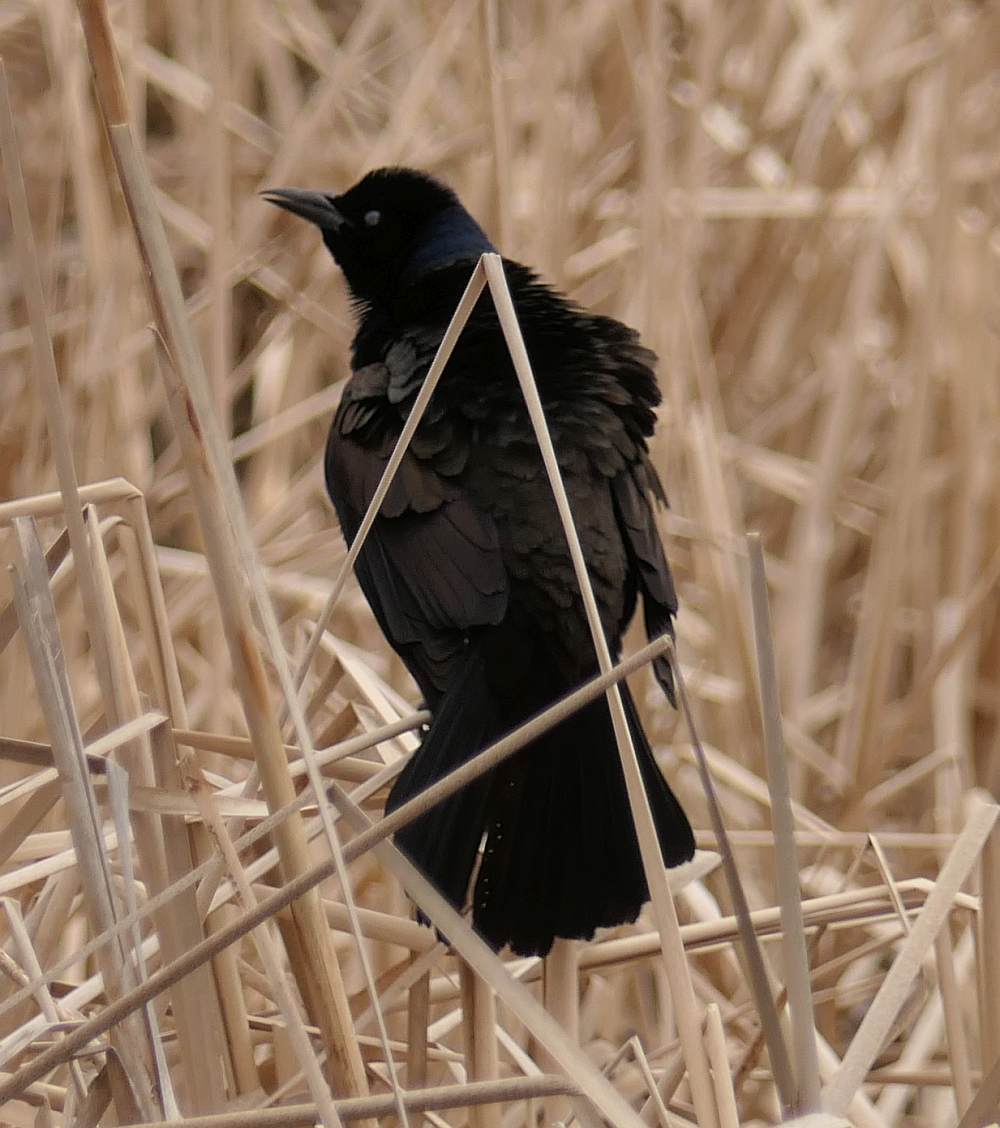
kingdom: Animalia
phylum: Chordata
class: Aves
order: Passeriformes
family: Icteridae
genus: Quiscalus
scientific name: Quiscalus quiscula
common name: Common grackle
